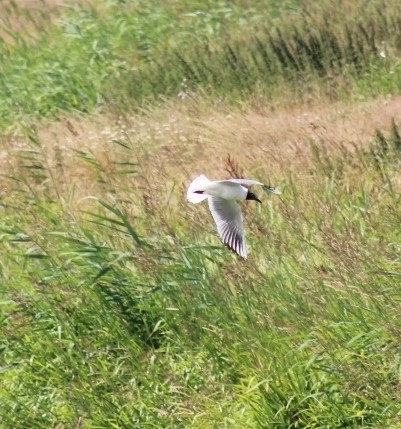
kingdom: Animalia
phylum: Chordata
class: Aves
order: Charadriiformes
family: Laridae
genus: Chroicocephalus
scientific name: Chroicocephalus ridibundus
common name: Black-headed gull
